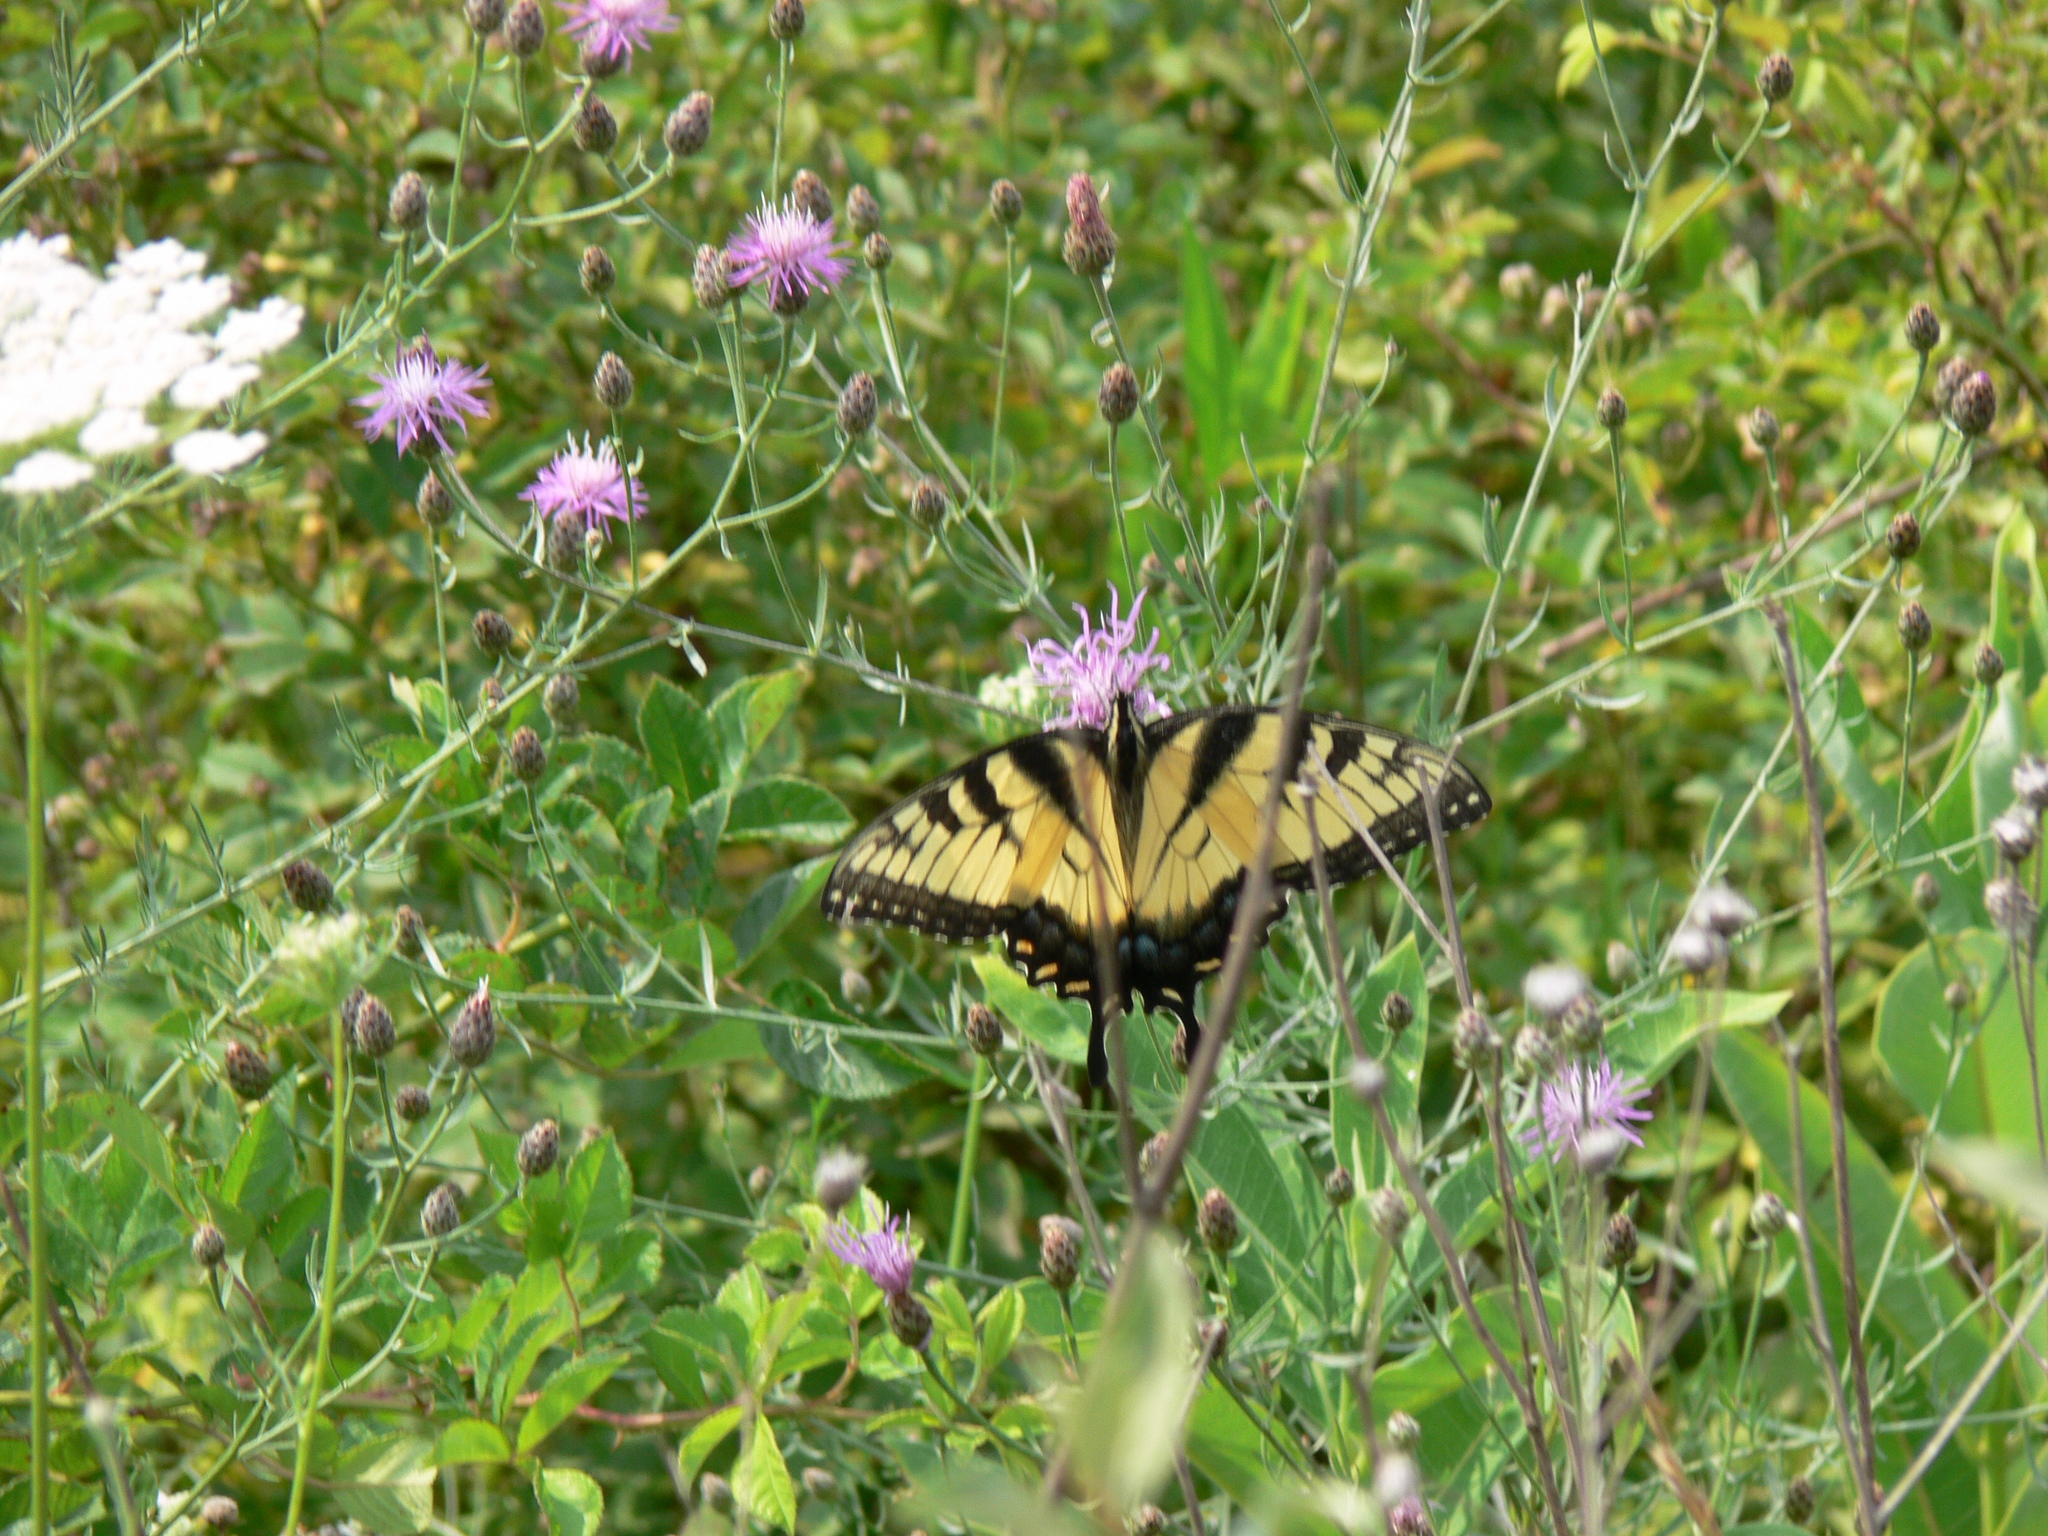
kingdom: Animalia
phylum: Arthropoda
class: Insecta
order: Lepidoptera
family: Papilionidae
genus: Papilio
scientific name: Papilio glaucus
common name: Tiger swallowtail
